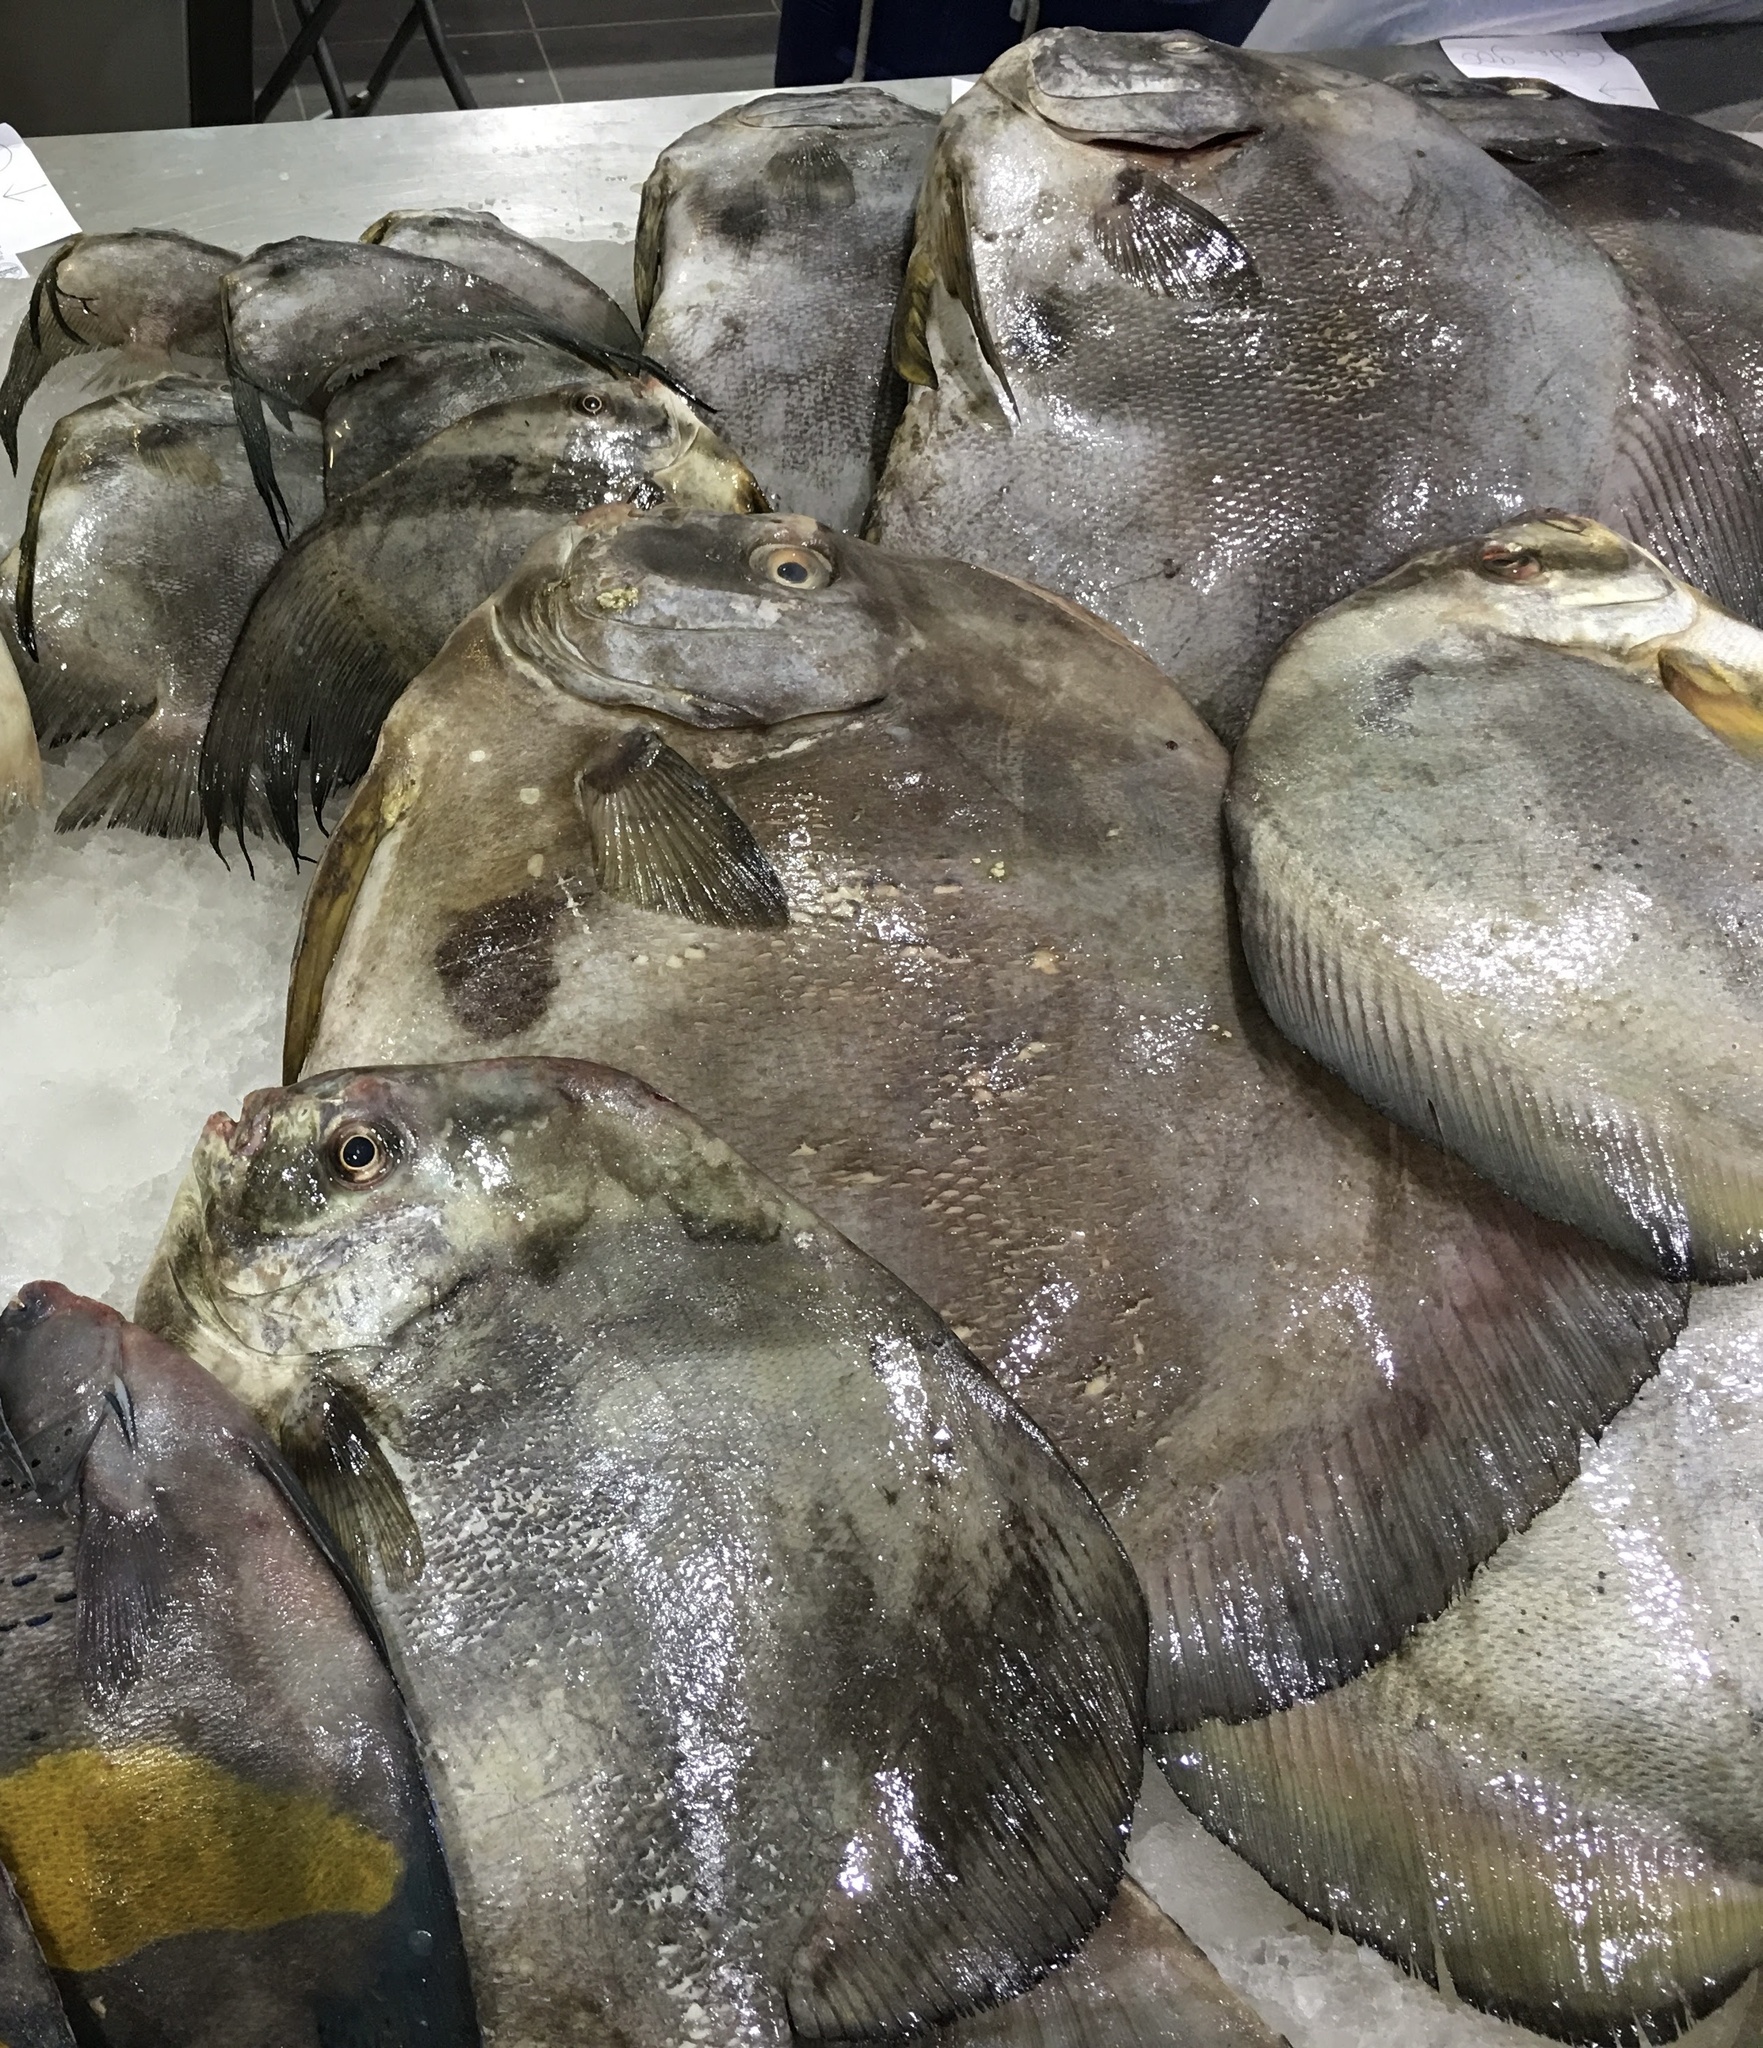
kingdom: Animalia
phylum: Chordata
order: Perciformes
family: Ephippidae
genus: Platax
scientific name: Platax teira
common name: Longfin baitfish
